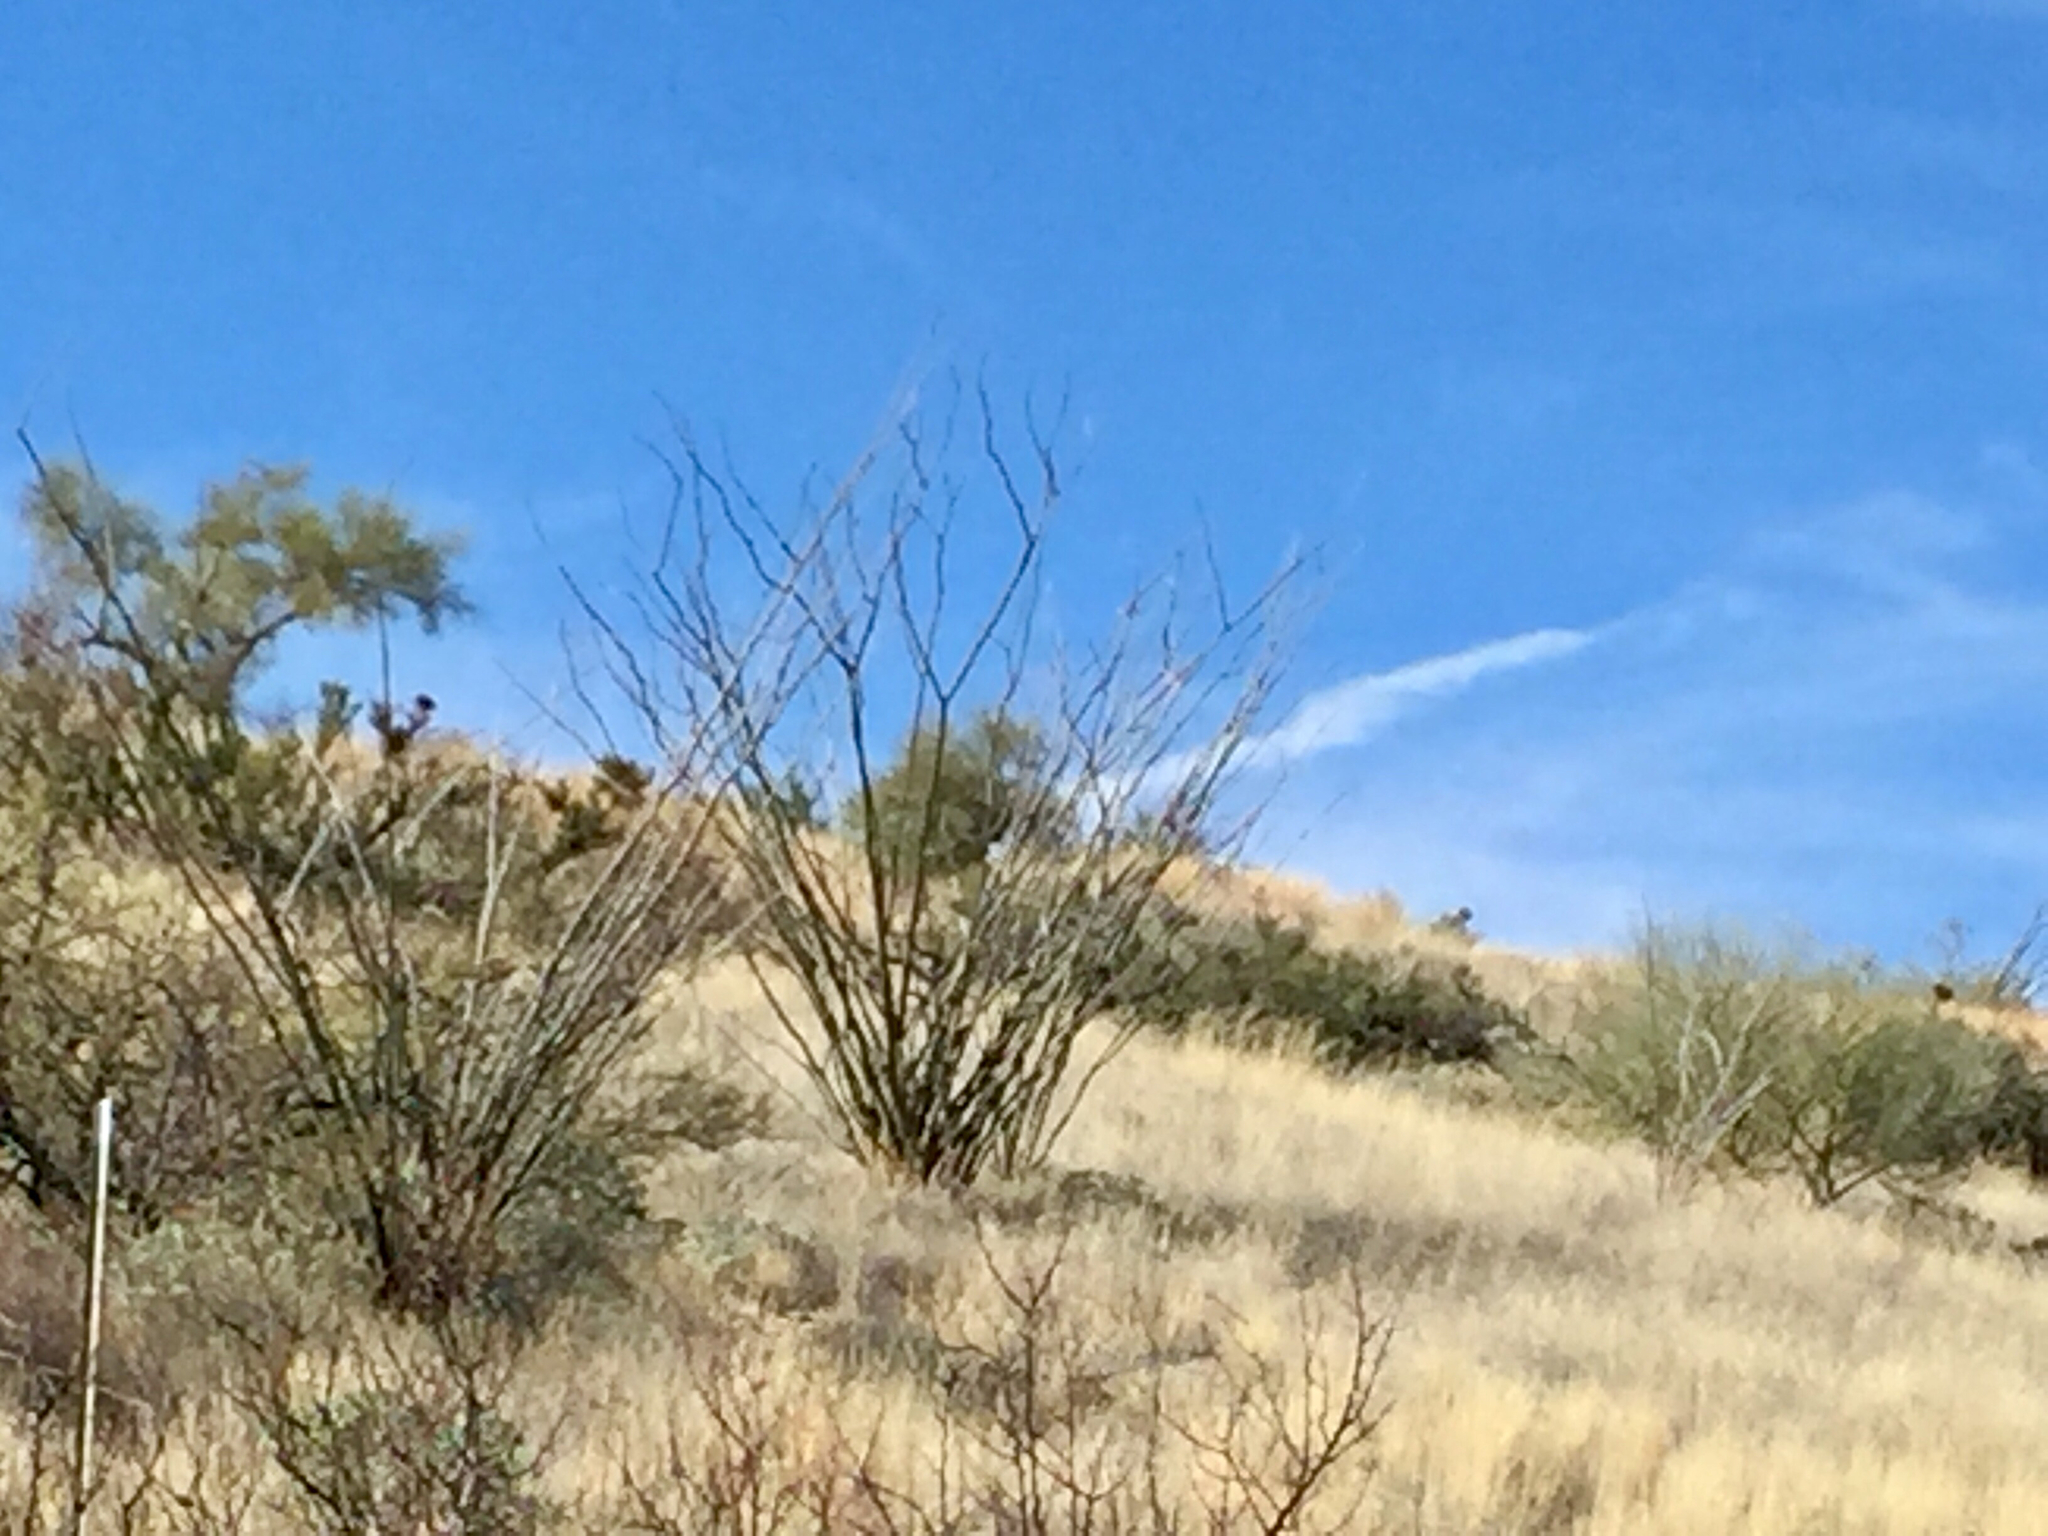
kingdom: Plantae
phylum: Tracheophyta
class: Magnoliopsida
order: Ericales
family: Fouquieriaceae
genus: Fouquieria
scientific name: Fouquieria splendens
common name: Vine-cactus
